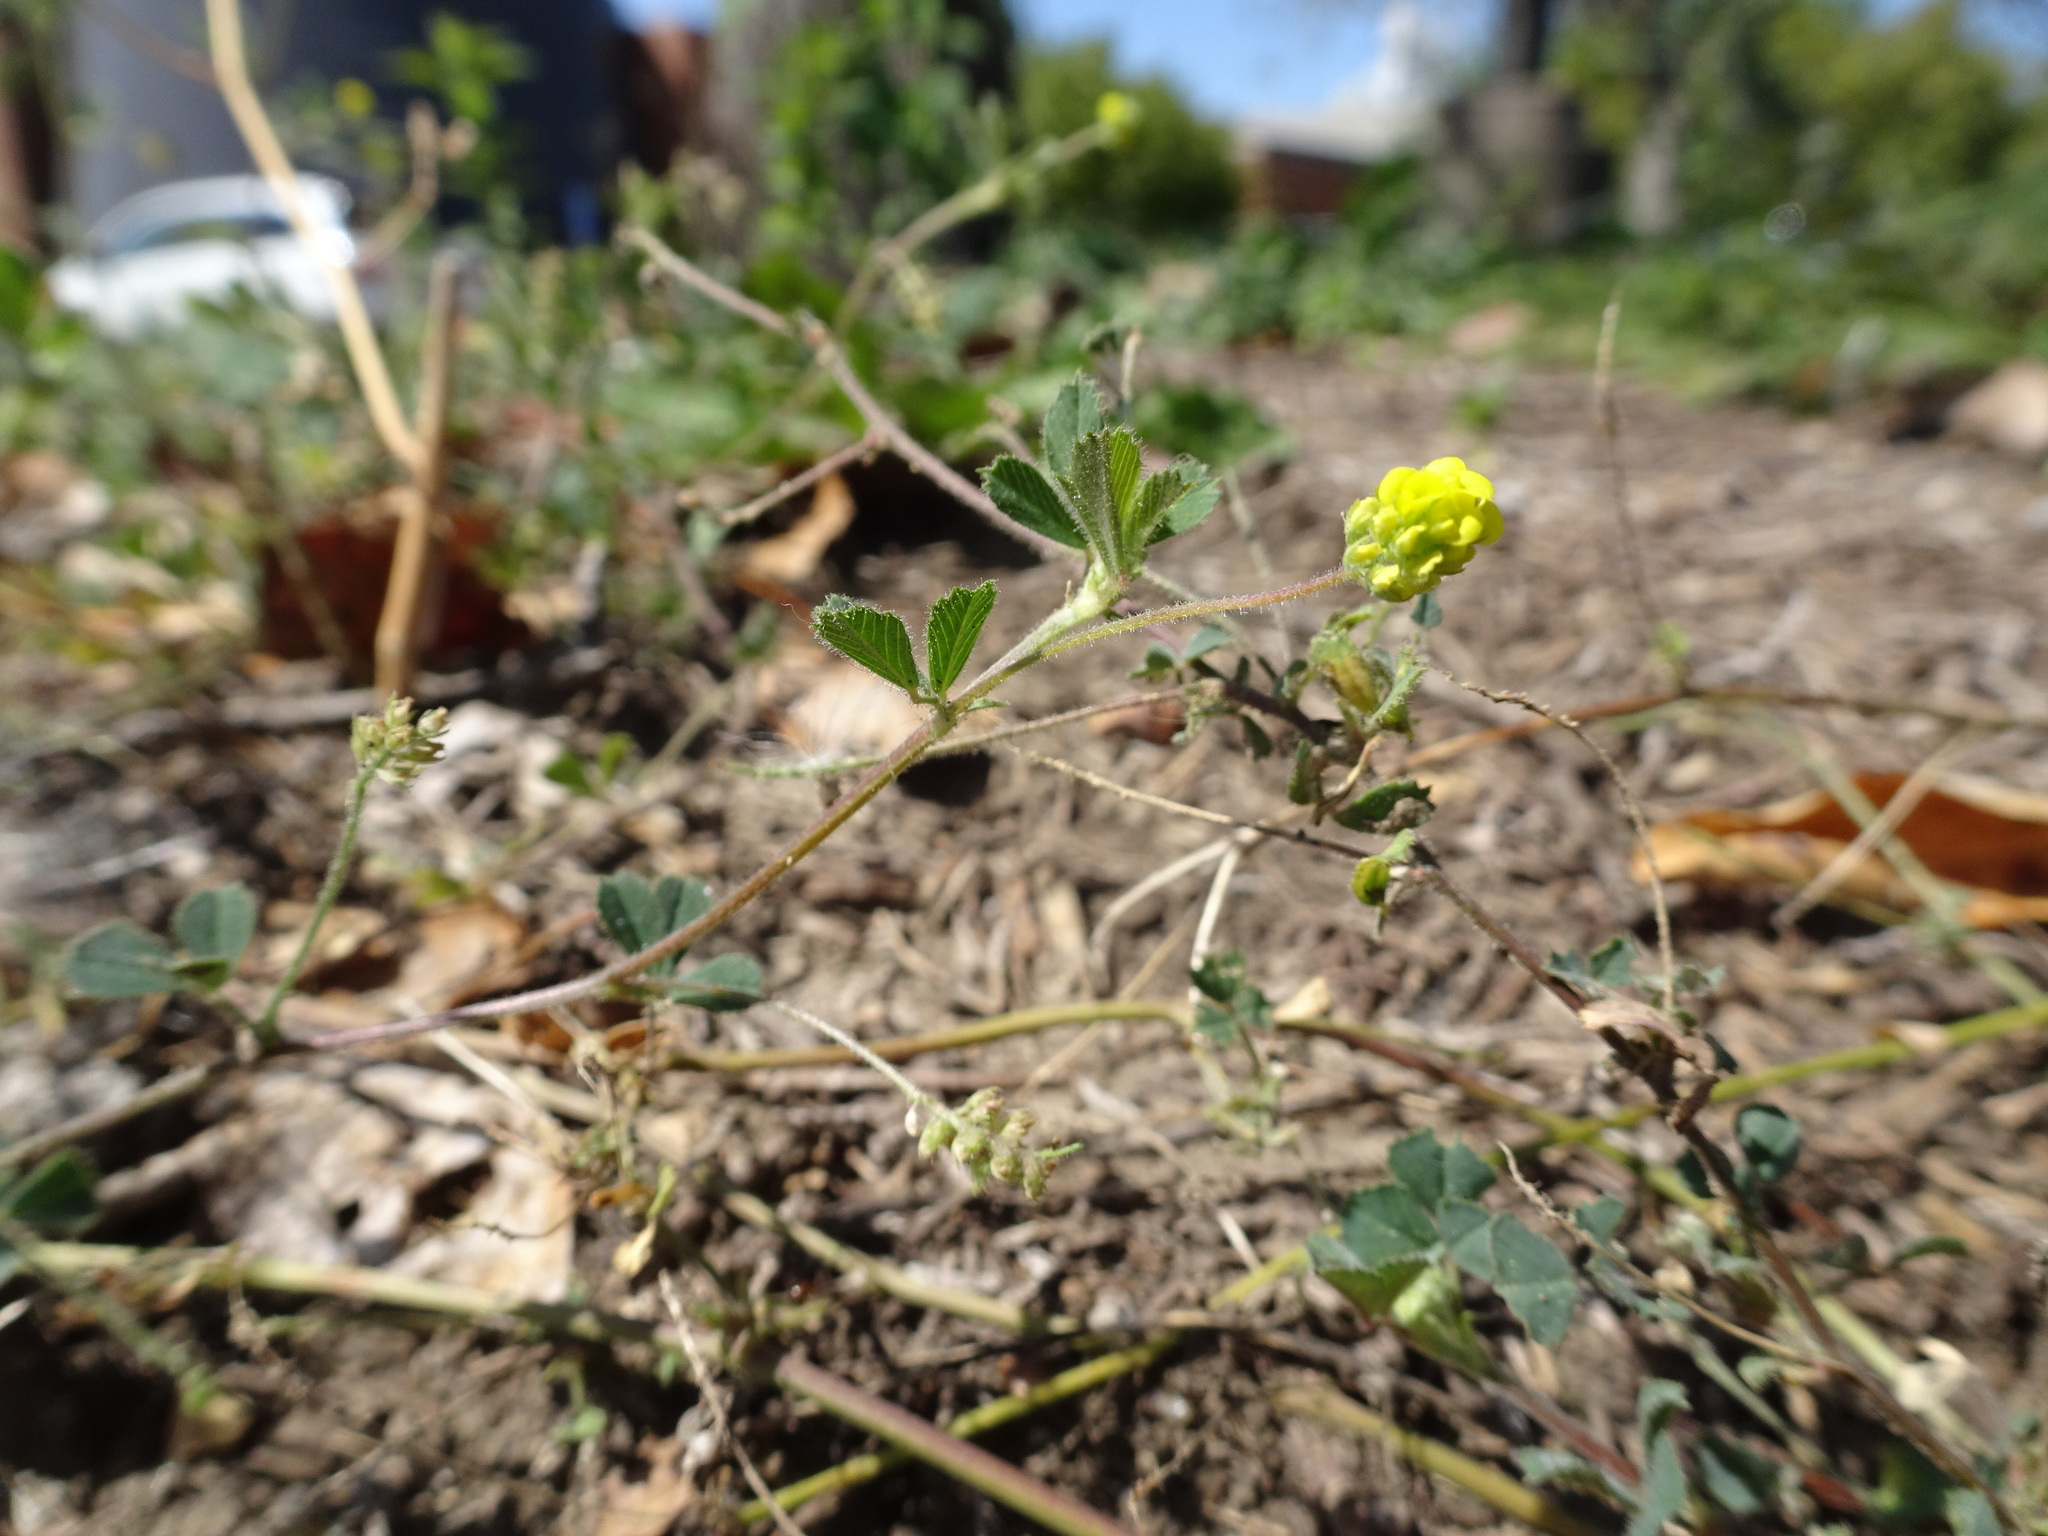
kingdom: Plantae
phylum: Tracheophyta
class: Magnoliopsida
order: Fabales
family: Fabaceae
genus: Medicago
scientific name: Medicago lupulina
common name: Black medick
